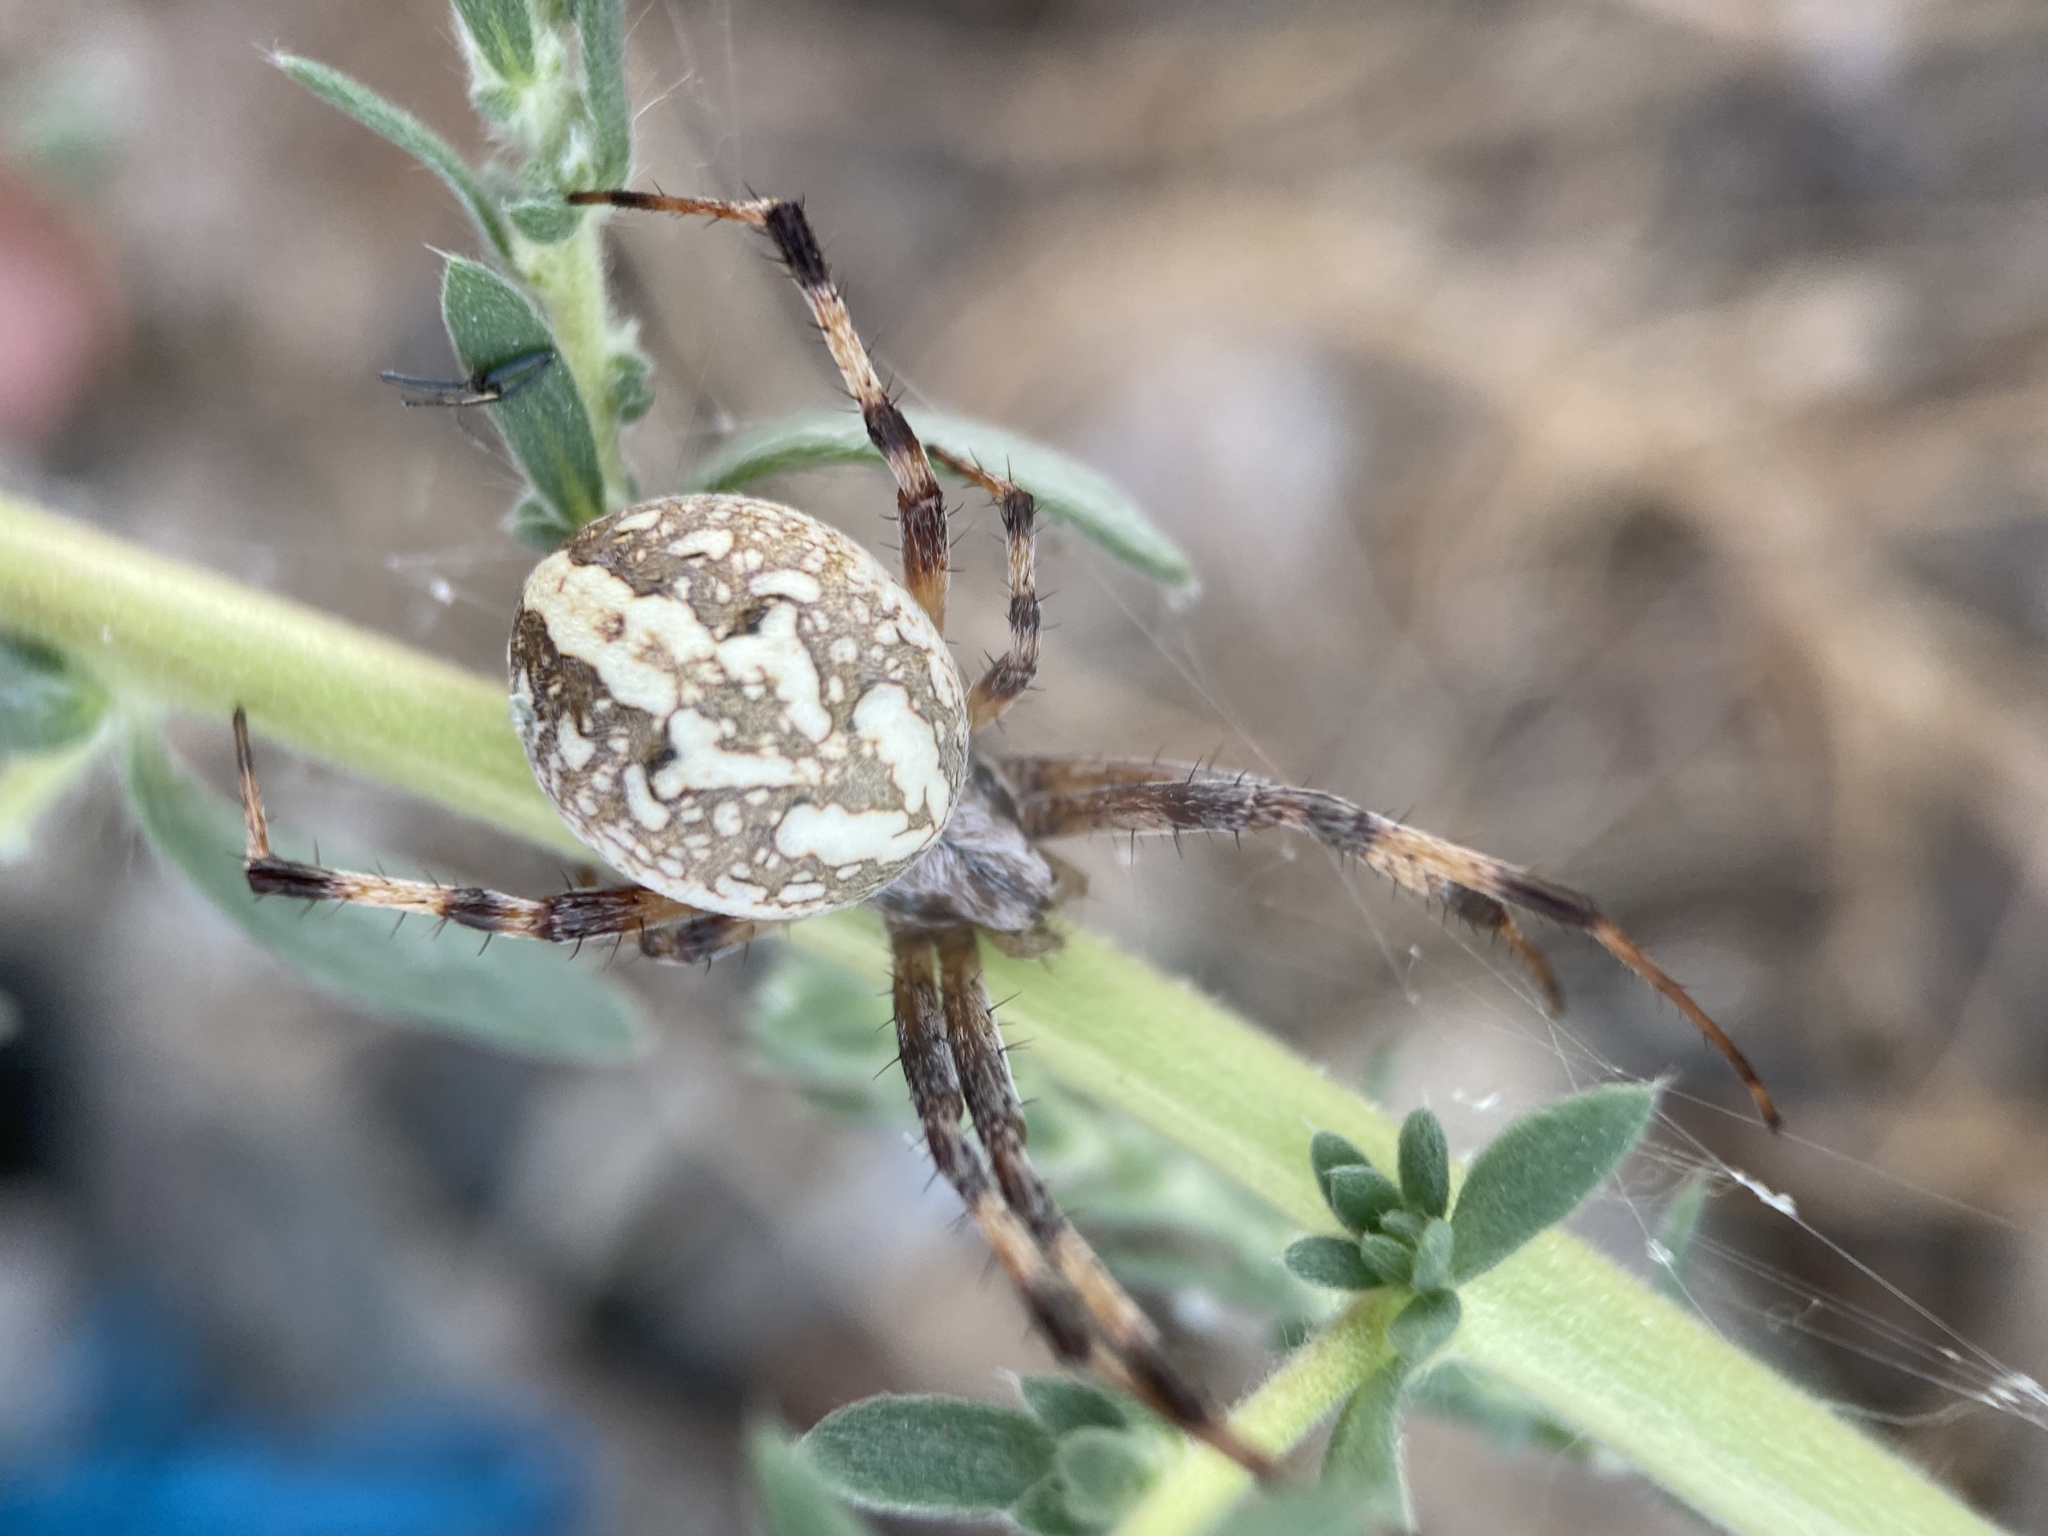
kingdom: Animalia
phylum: Arthropoda
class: Arachnida
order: Araneae
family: Araneidae
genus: Neoscona
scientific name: Neoscona oaxacensis
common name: Orb weavers
